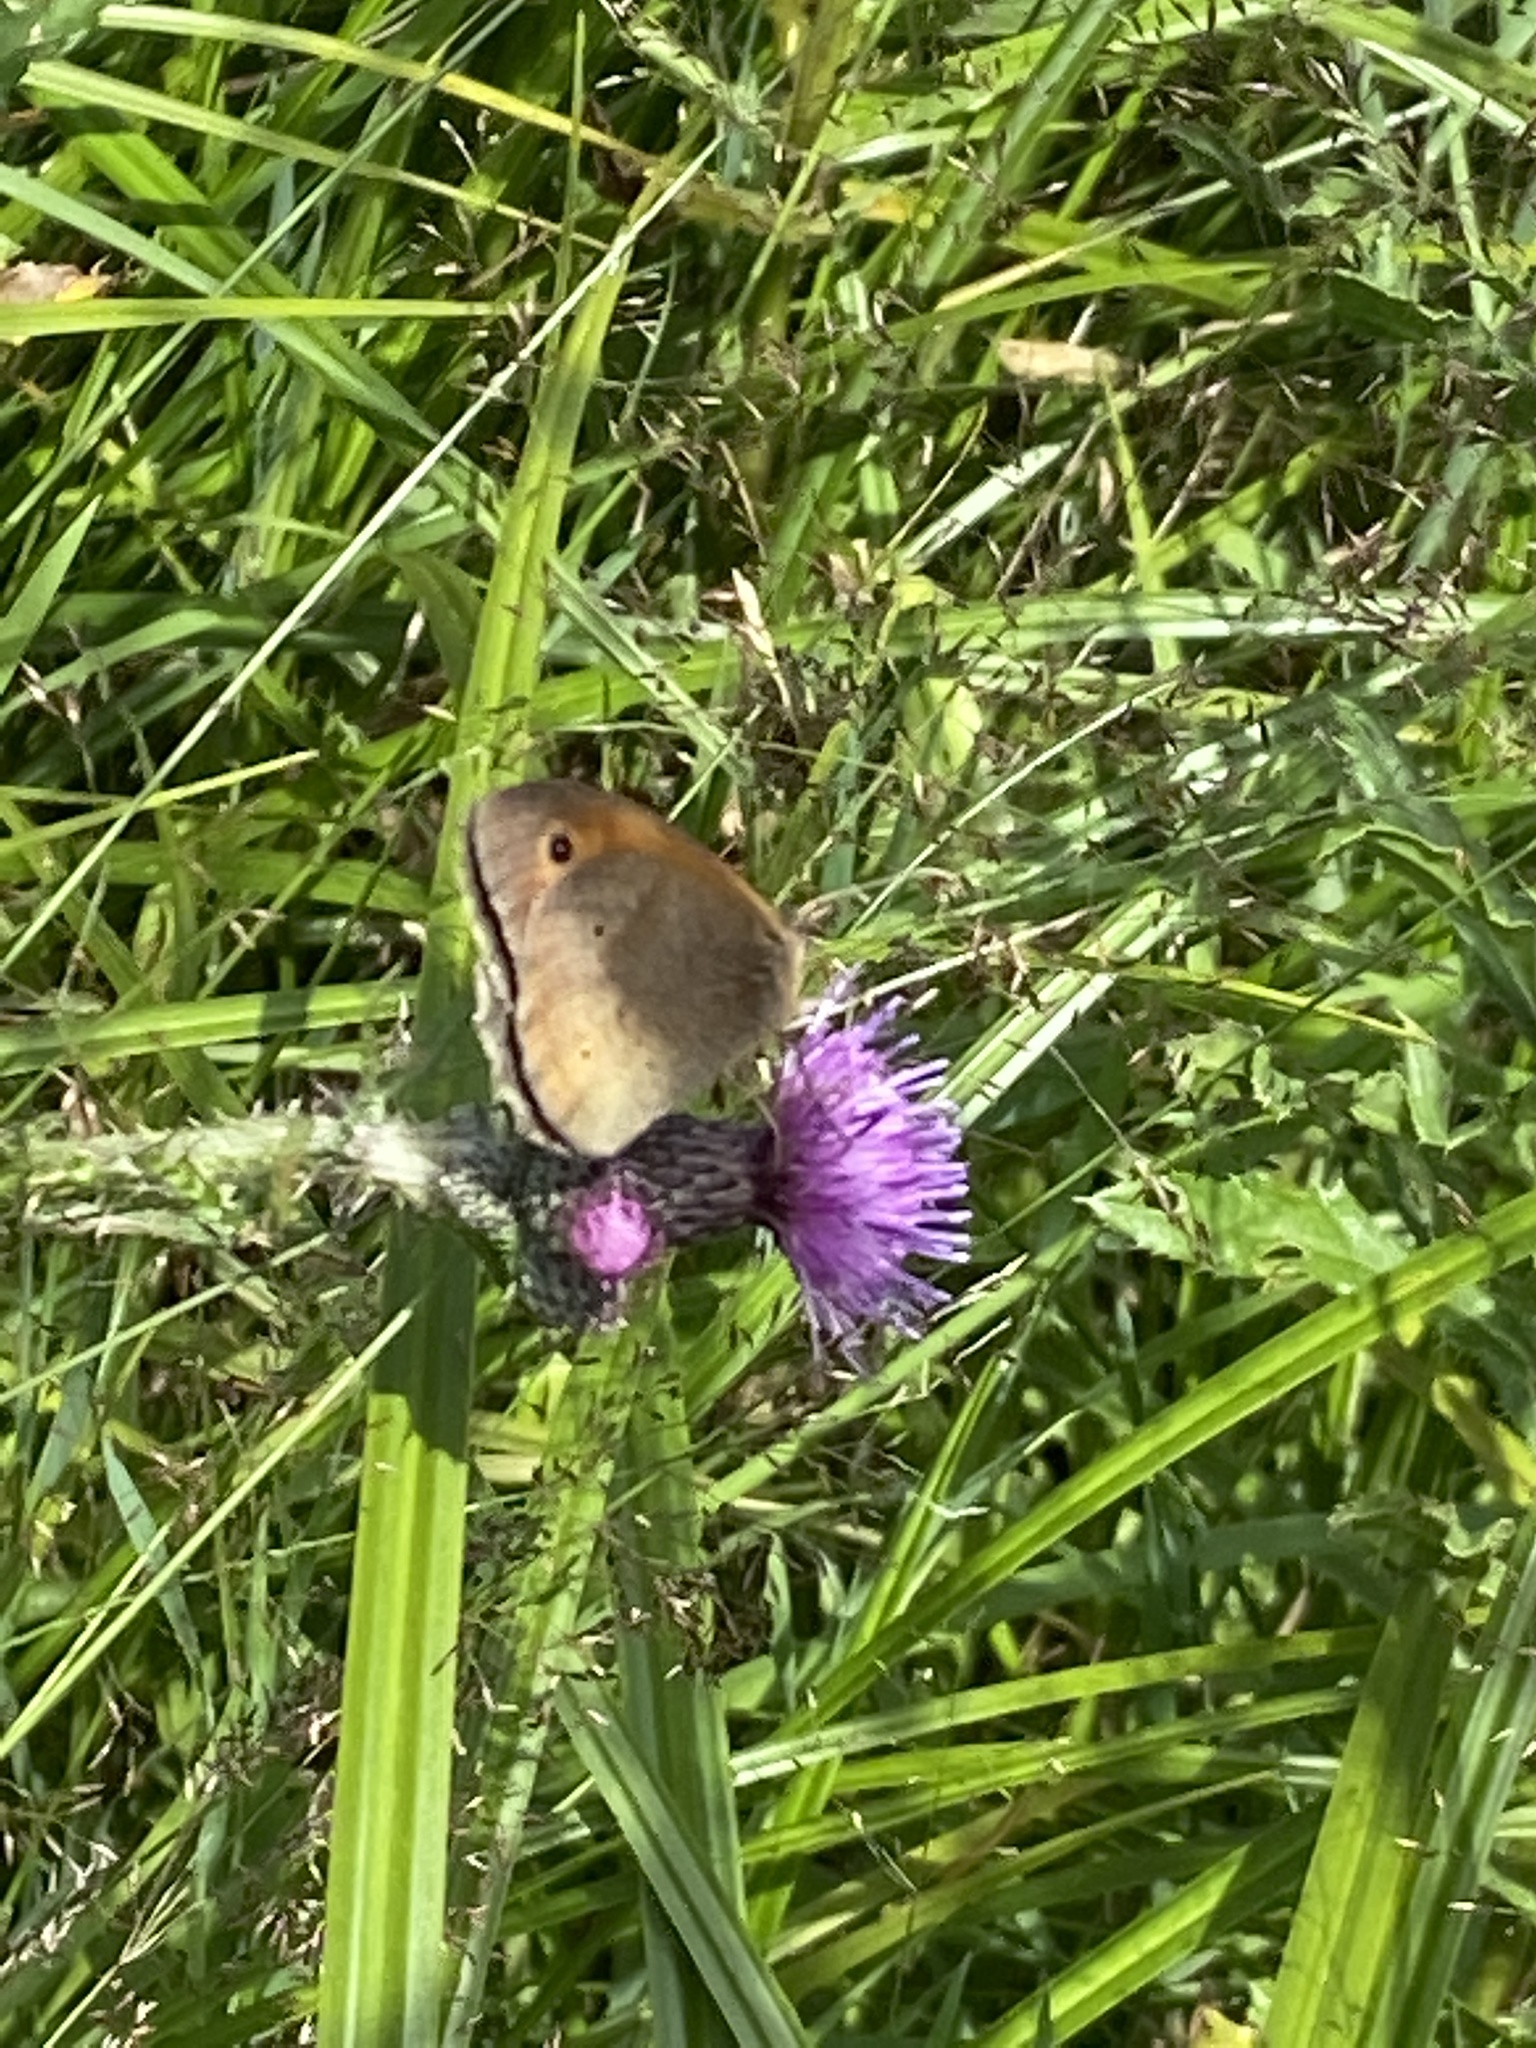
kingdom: Animalia
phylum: Arthropoda
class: Insecta
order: Lepidoptera
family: Nymphalidae
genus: Maniola
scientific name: Maniola jurtina
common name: Meadow brown
